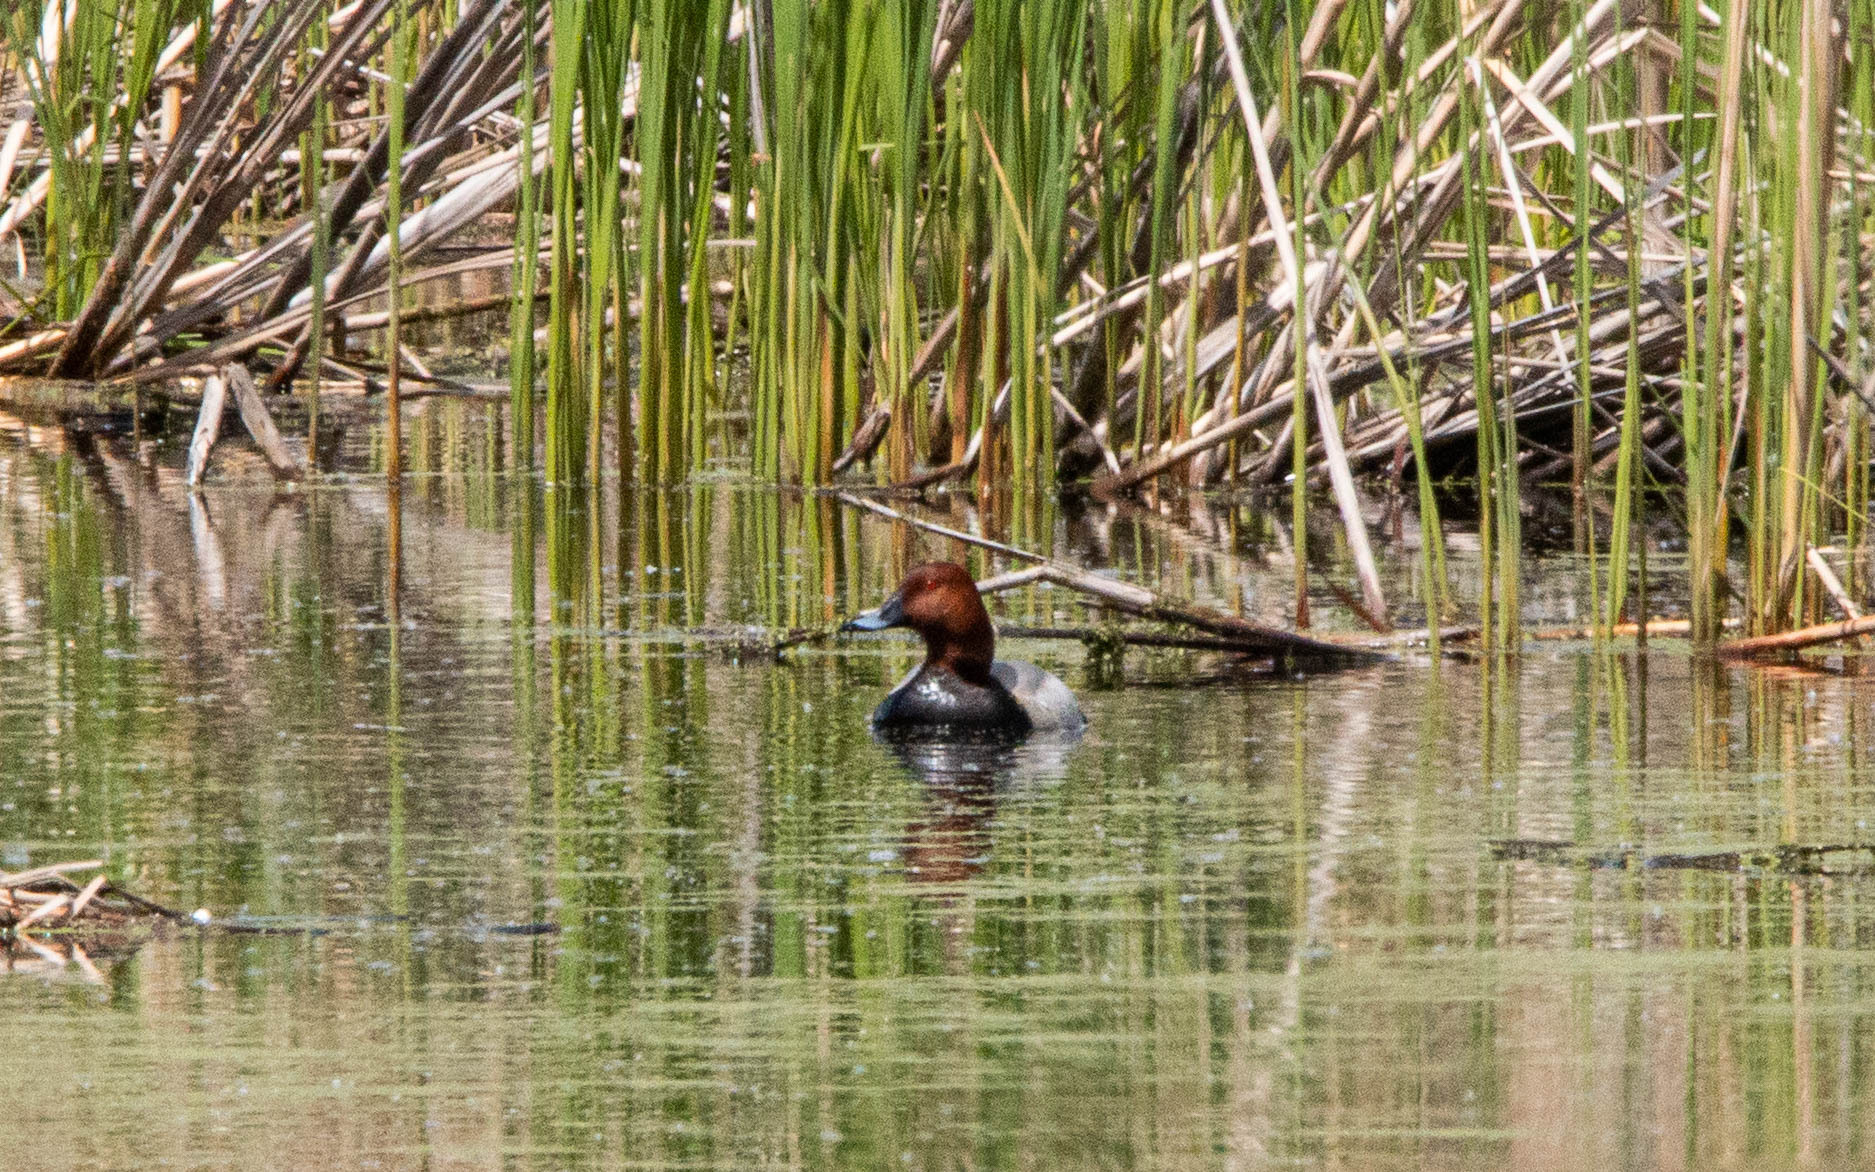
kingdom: Animalia
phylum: Chordata
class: Aves
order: Anseriformes
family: Anatidae
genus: Aythya
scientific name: Aythya ferina
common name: Common pochard
